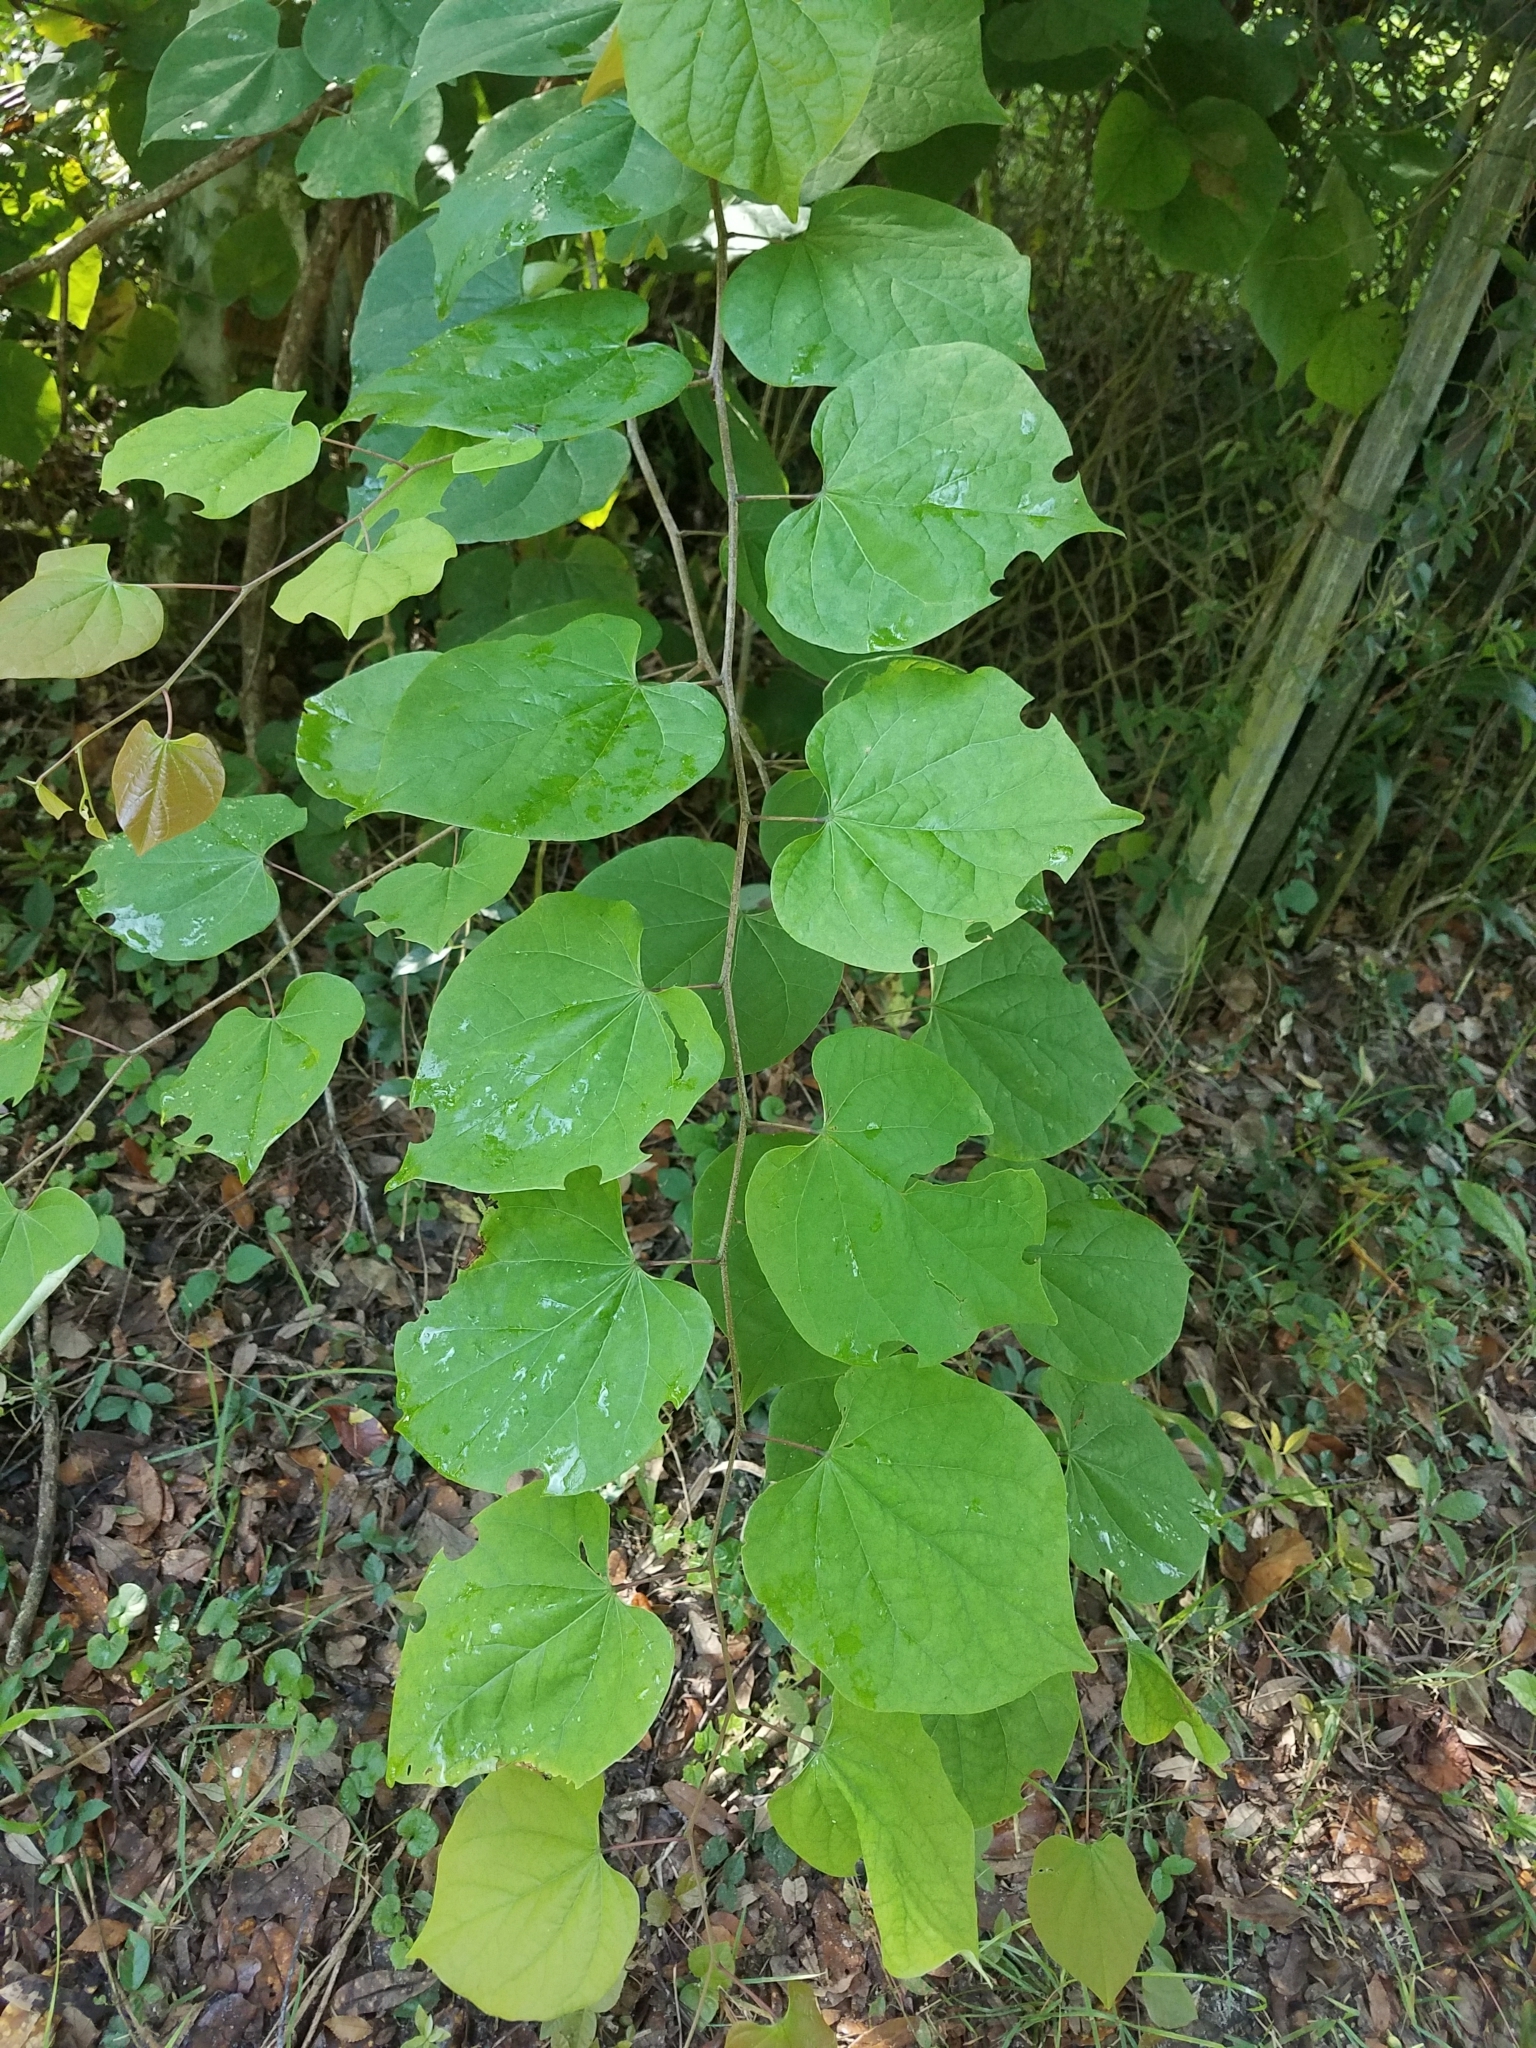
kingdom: Plantae
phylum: Tracheophyta
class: Magnoliopsida
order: Fabales
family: Fabaceae
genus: Cercis
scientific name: Cercis canadensis
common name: Eastern redbud
